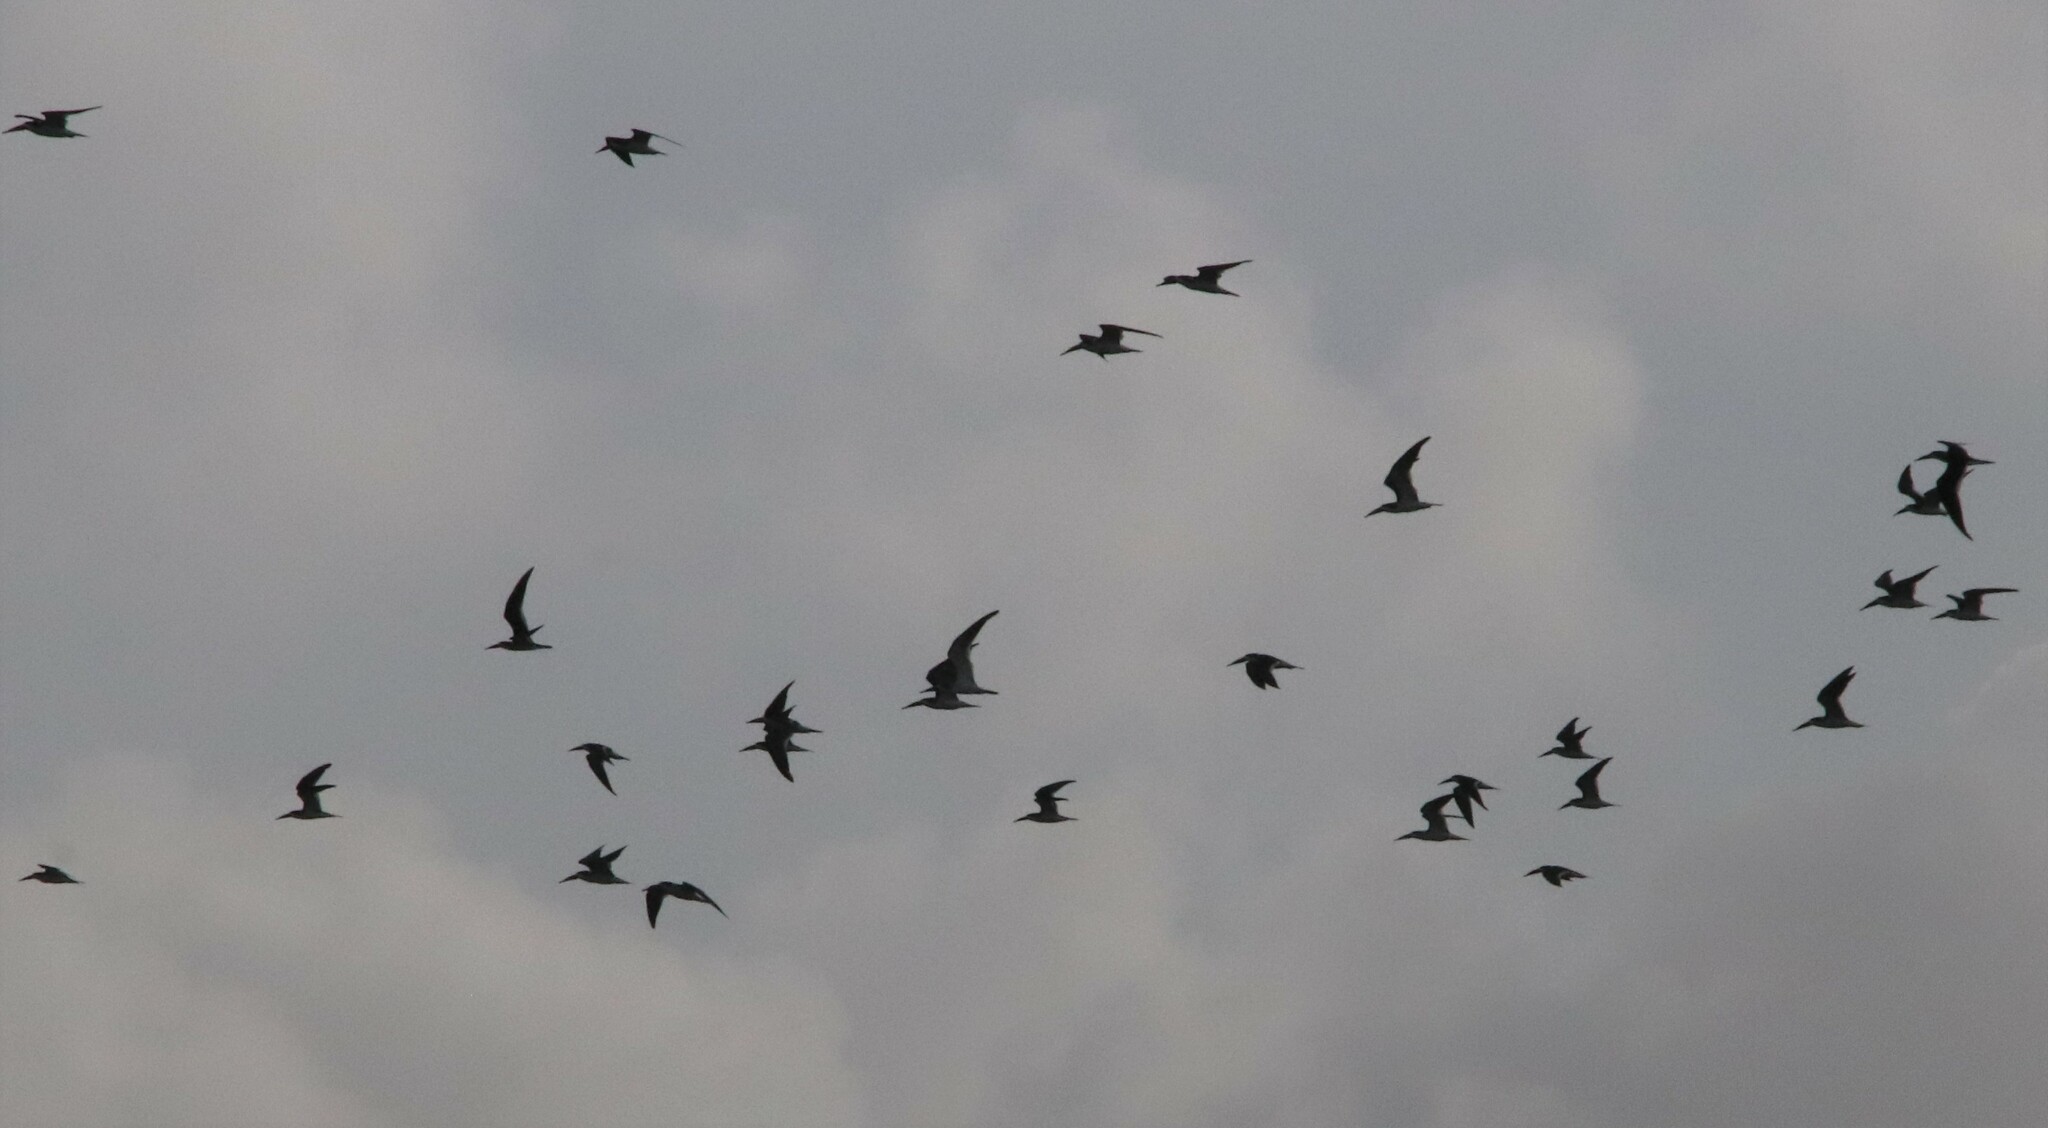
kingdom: Animalia
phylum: Chordata
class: Aves
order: Charadriiformes
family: Laridae
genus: Rynchops
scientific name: Rynchops niger
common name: Black skimmer
